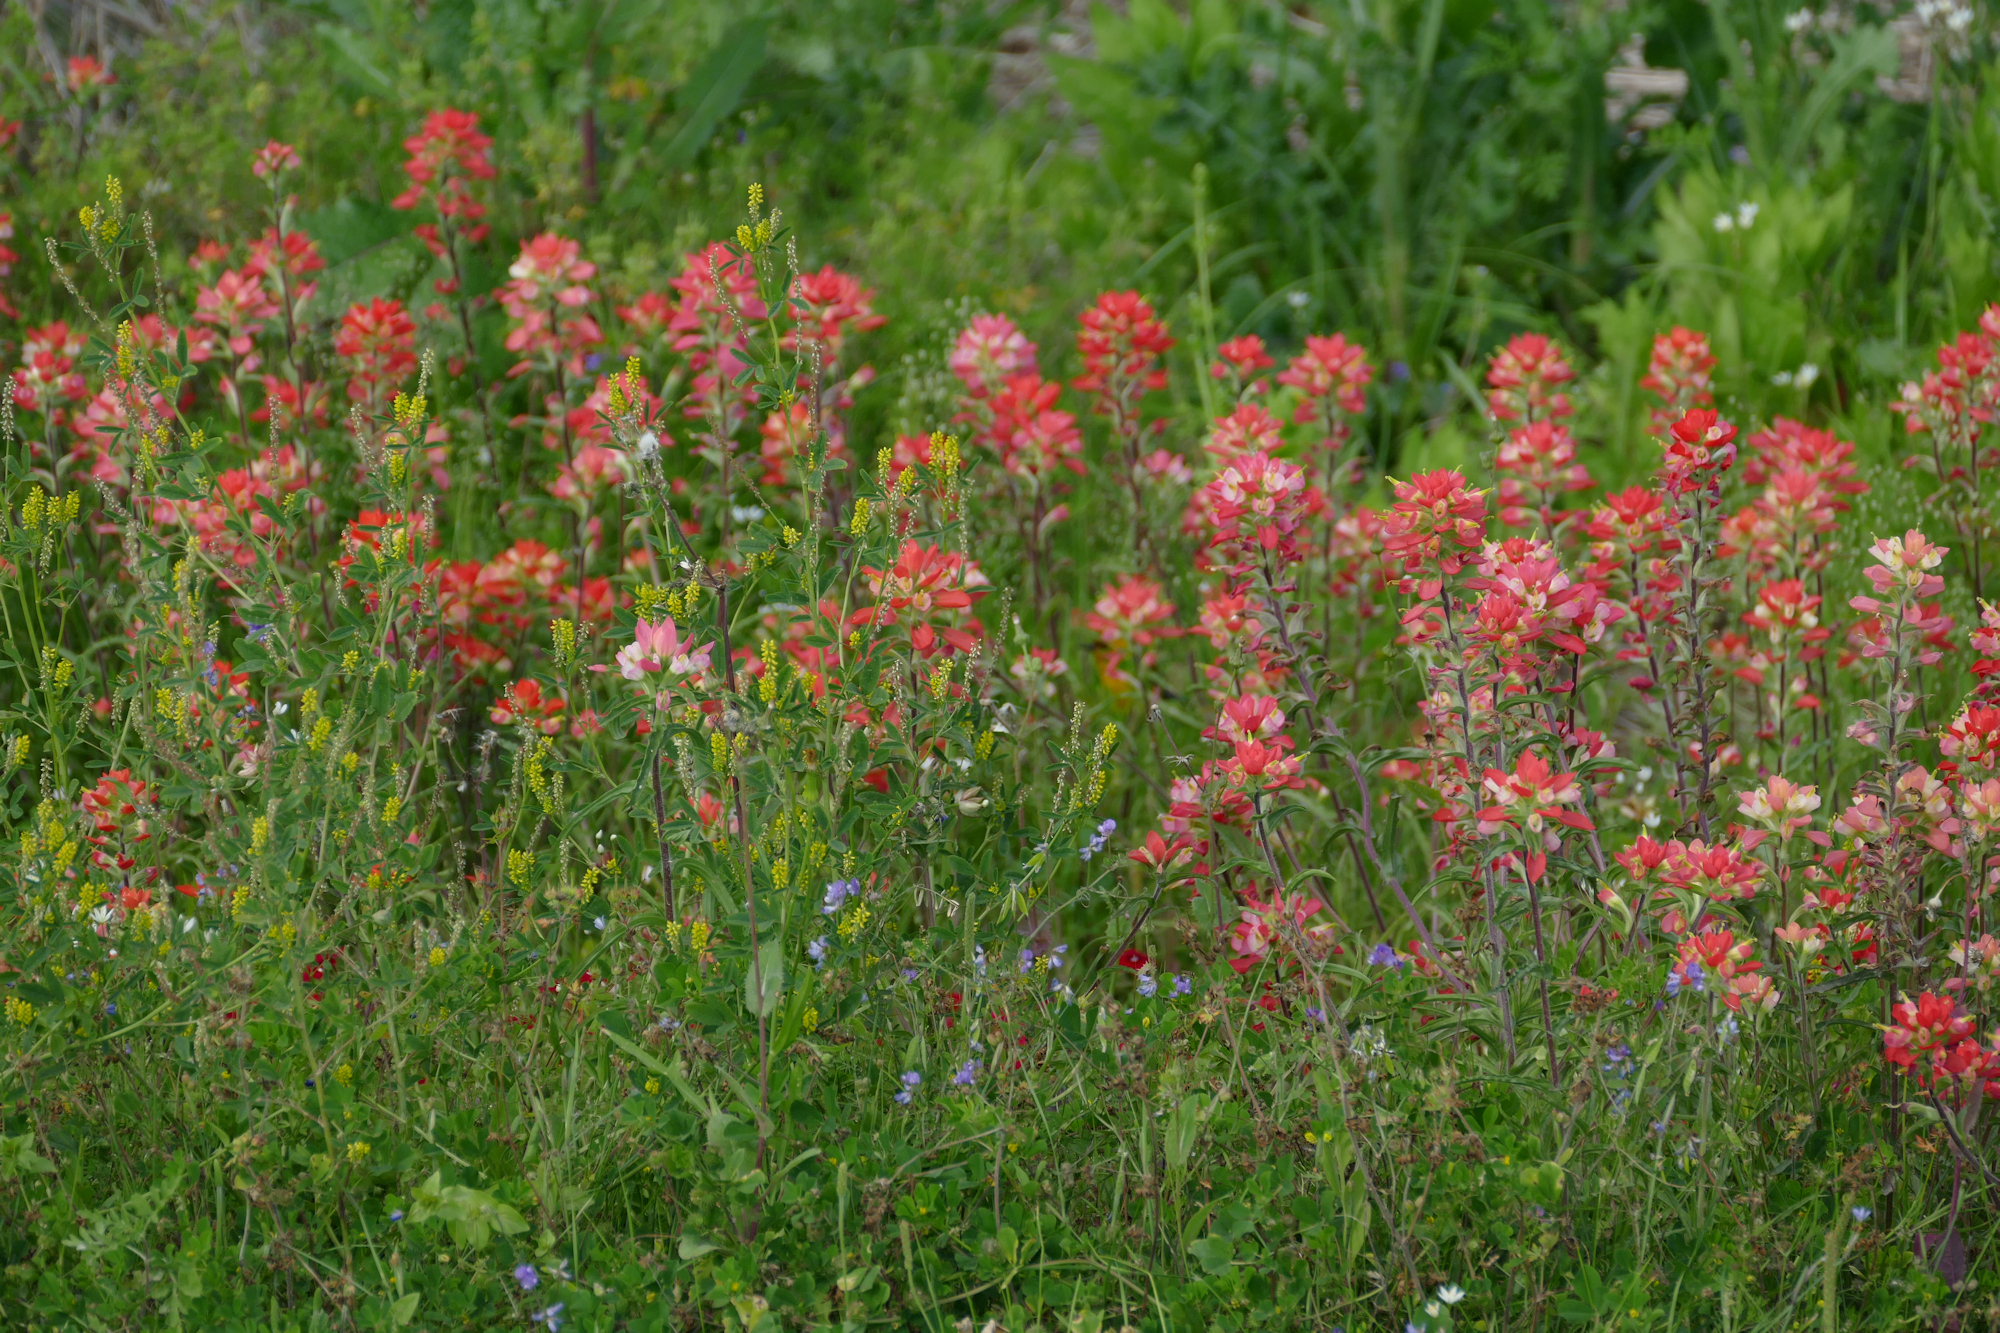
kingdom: Plantae
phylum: Tracheophyta
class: Magnoliopsida
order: Fabales
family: Fabaceae
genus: Melilotus
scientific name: Melilotus indicus
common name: Small melilot
